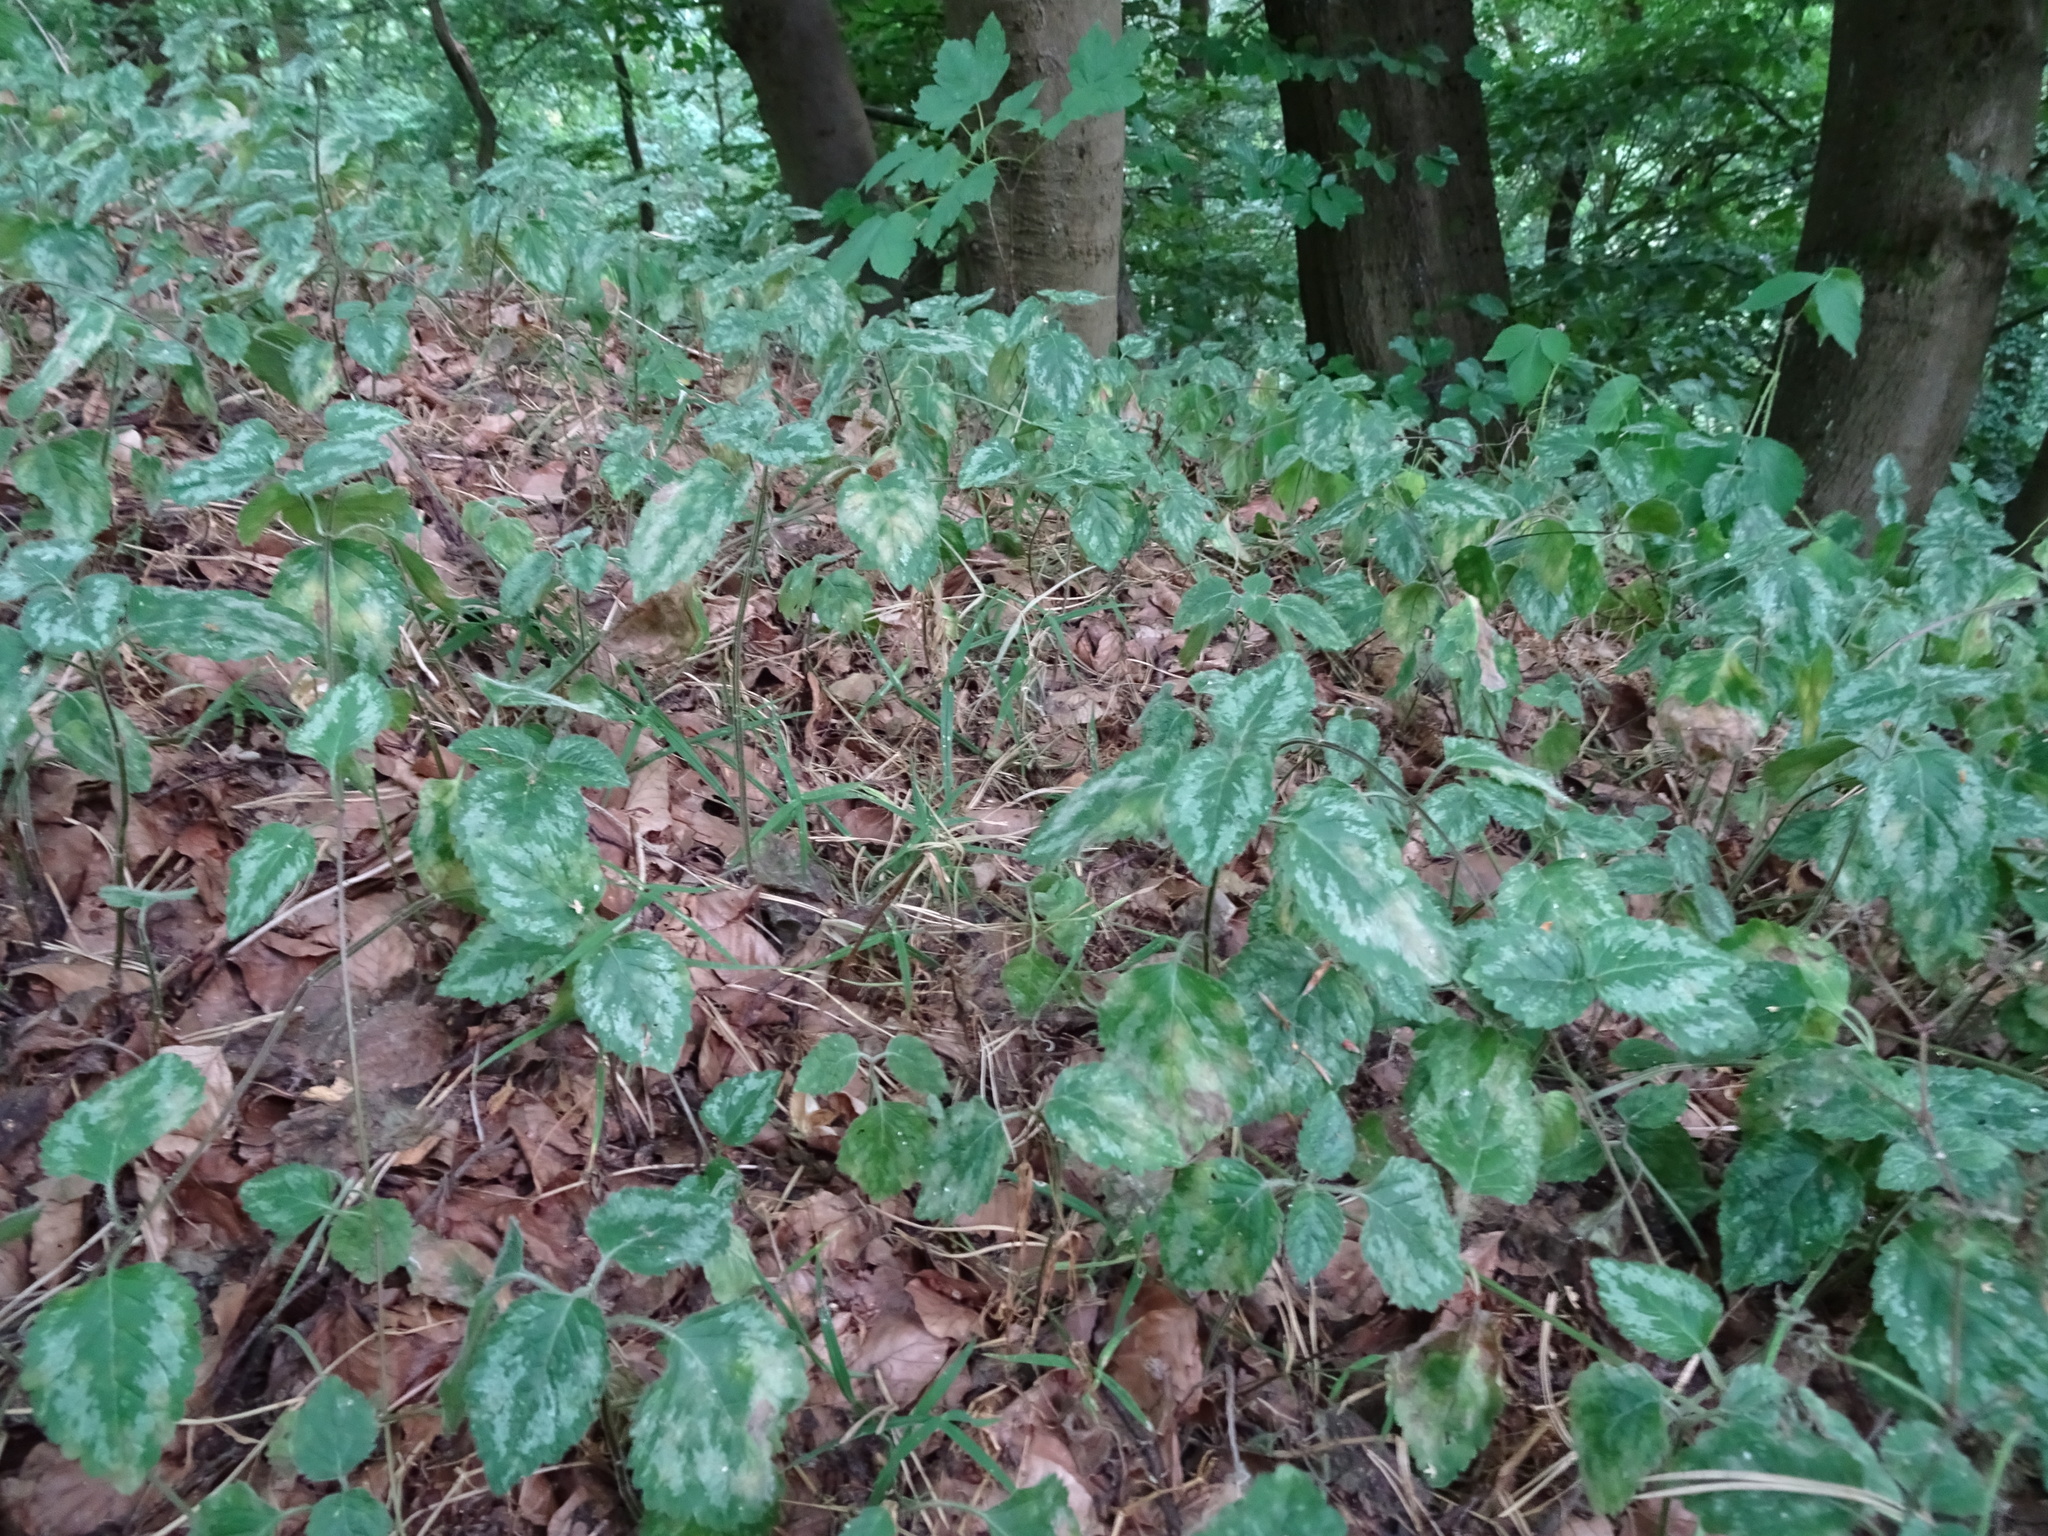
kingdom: Plantae
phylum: Tracheophyta
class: Magnoliopsida
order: Lamiales
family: Lamiaceae
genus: Lamium
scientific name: Lamium galeobdolon
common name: Yellow archangel
